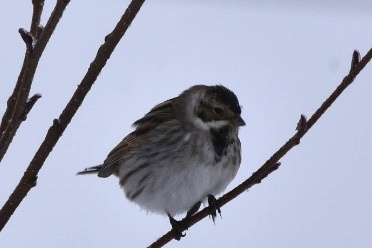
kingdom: Animalia
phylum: Chordata
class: Aves
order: Passeriformes
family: Emberizidae
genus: Emberiza
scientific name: Emberiza schoeniclus
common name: Reed bunting
